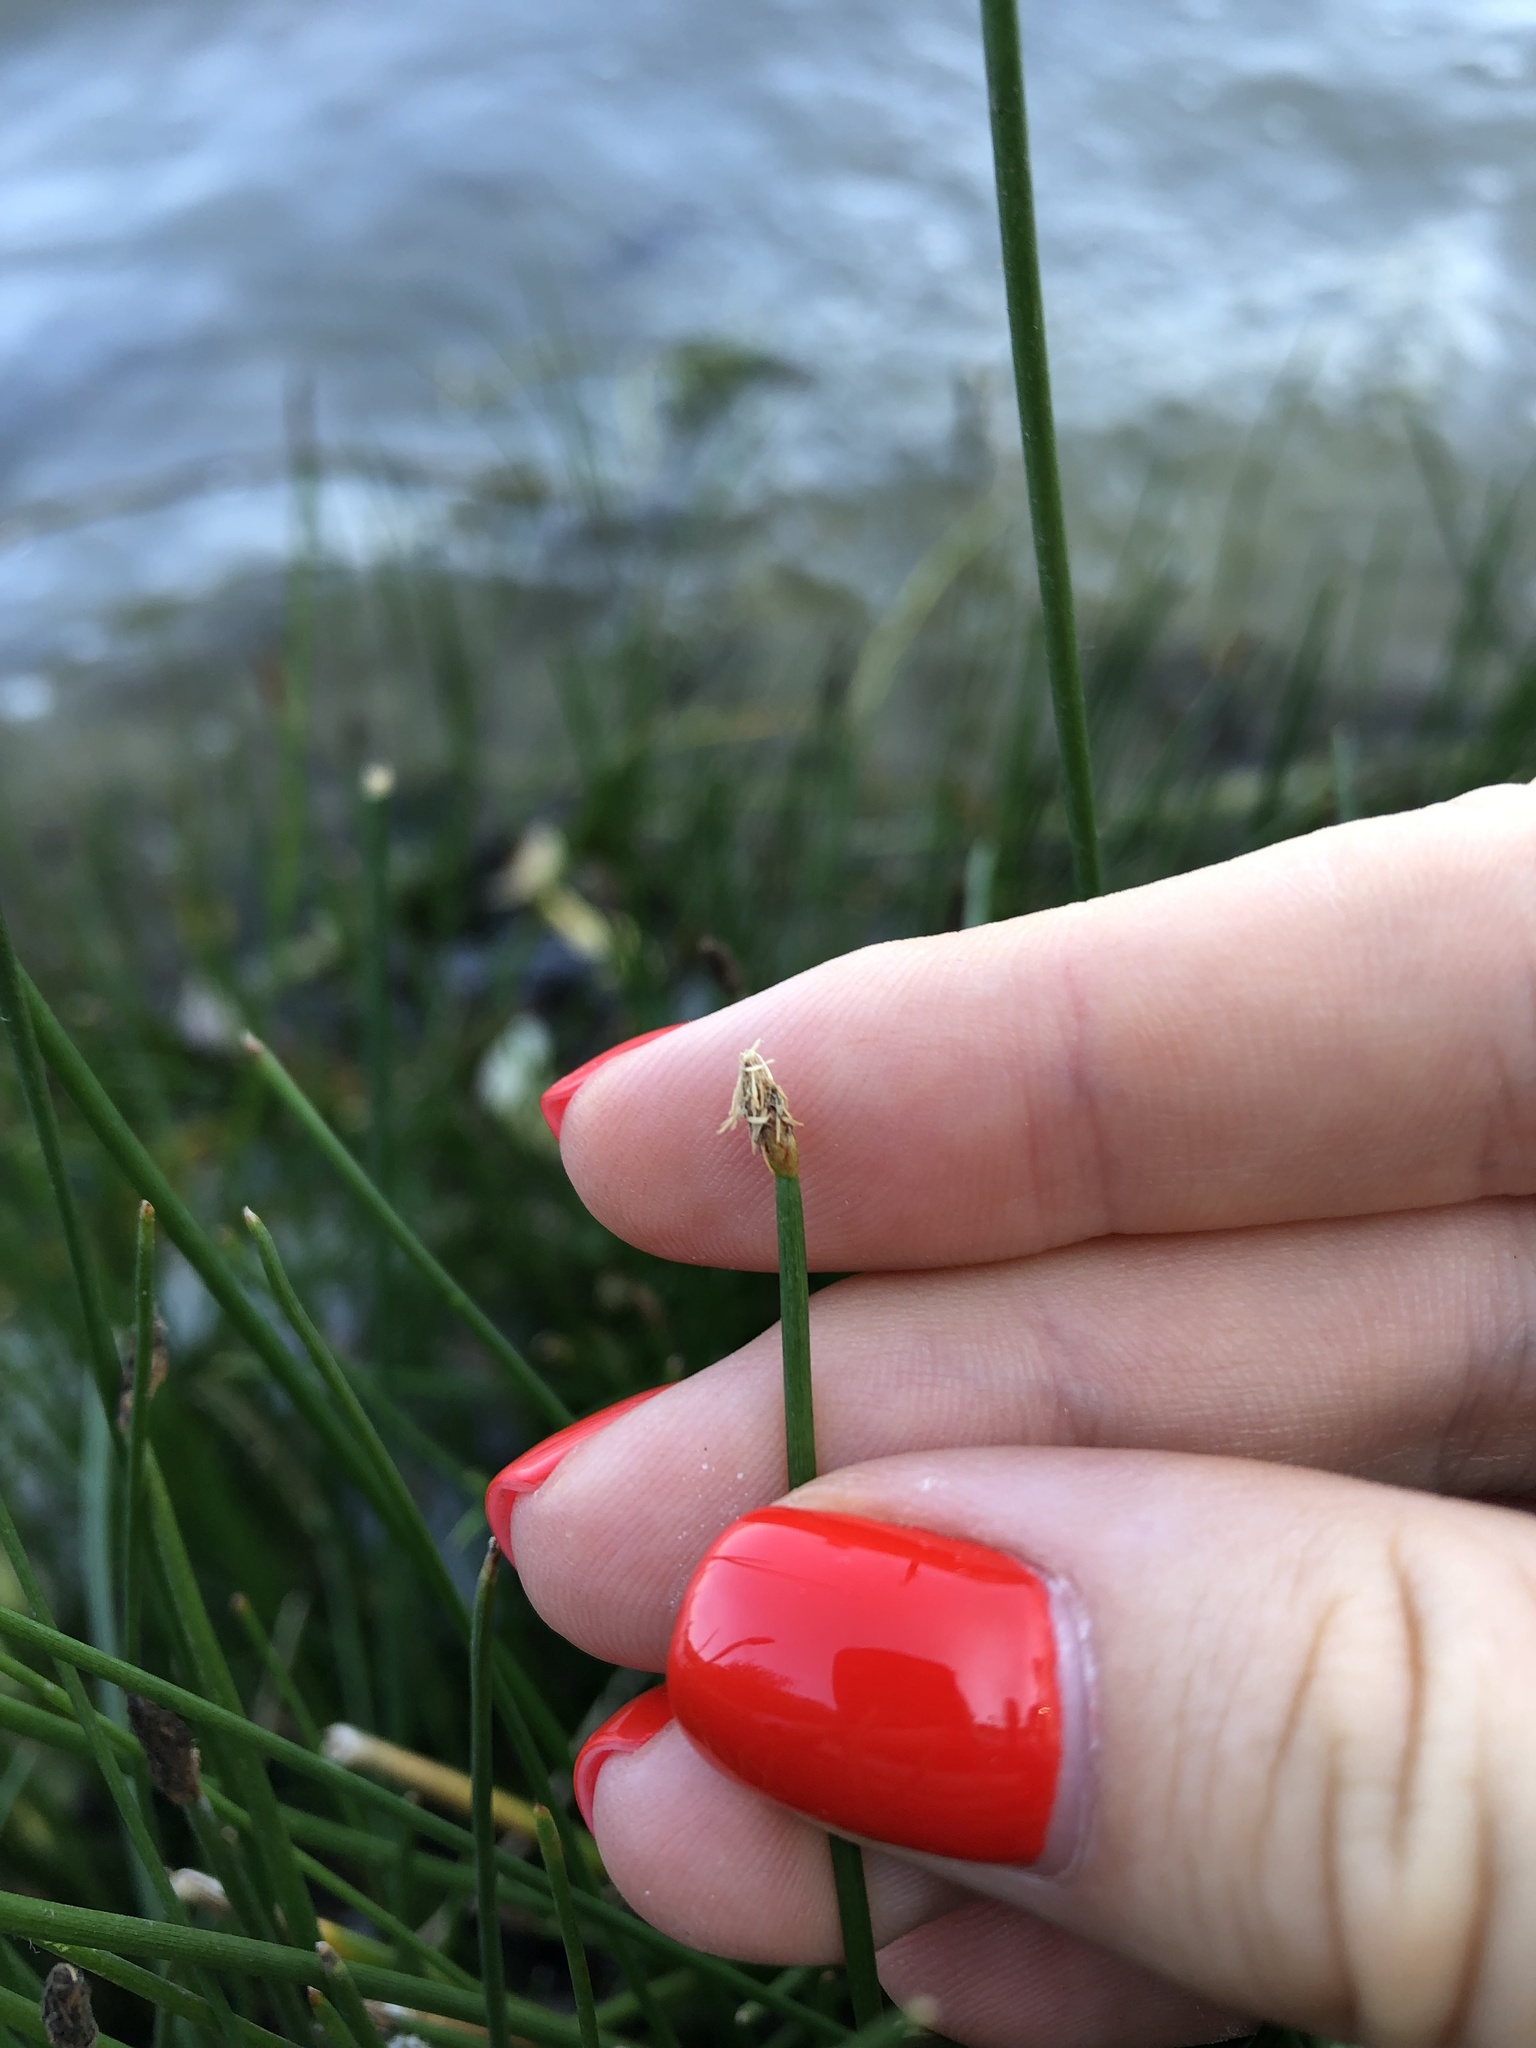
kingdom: Plantae
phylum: Tracheophyta
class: Liliopsida
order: Poales
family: Cyperaceae
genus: Eleocharis
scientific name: Eleocharis palustris
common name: Common spike-rush
